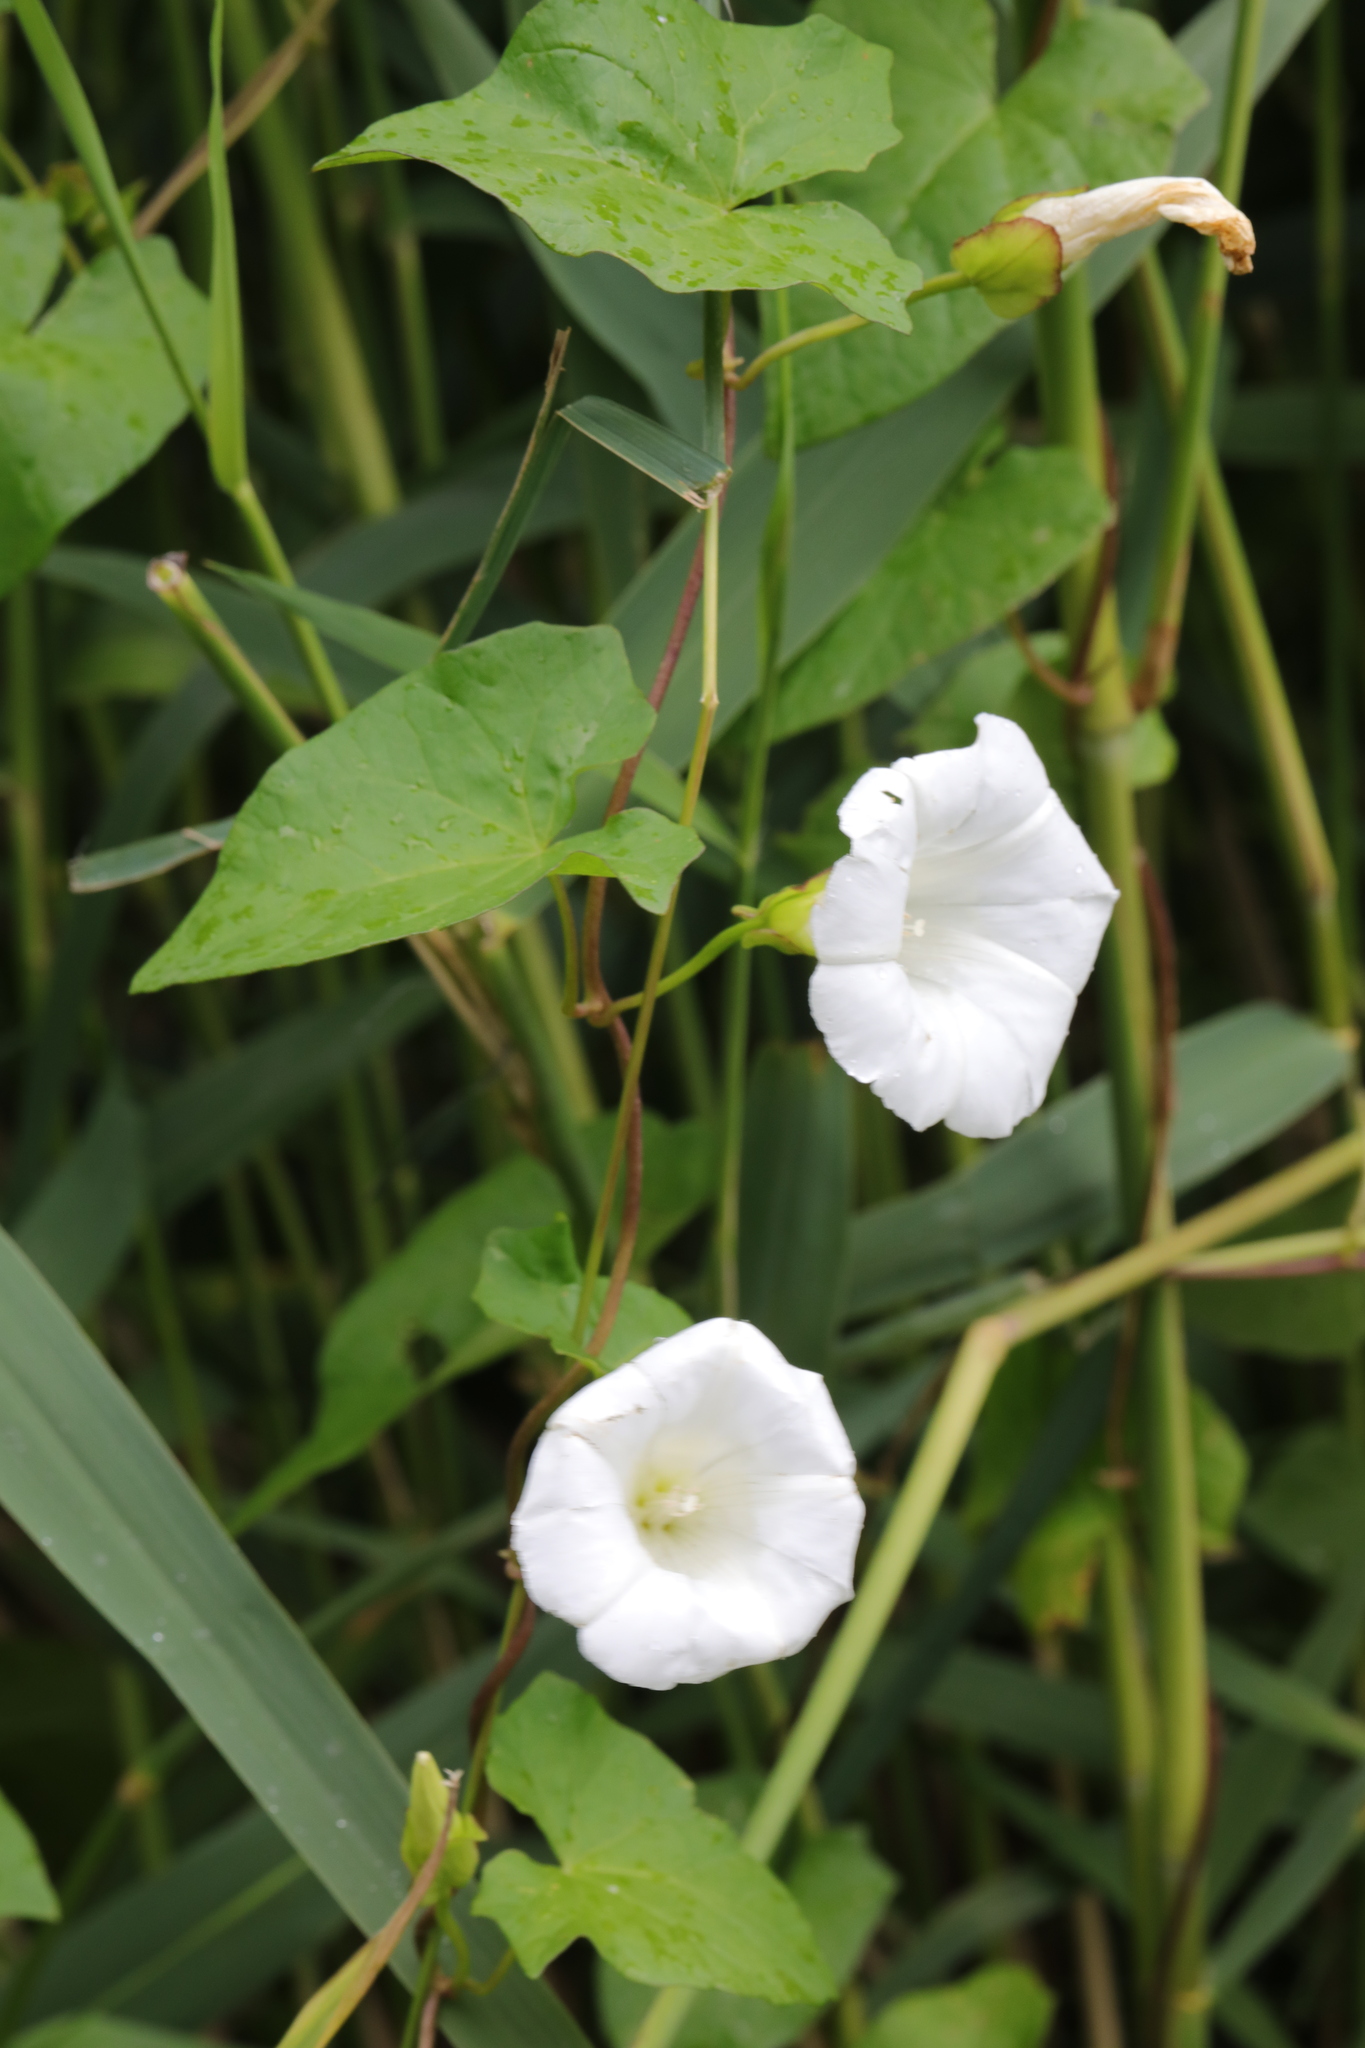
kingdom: Plantae
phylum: Tracheophyta
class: Magnoliopsida
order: Solanales
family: Convolvulaceae
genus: Calystegia
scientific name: Calystegia sepium
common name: Hedge bindweed
